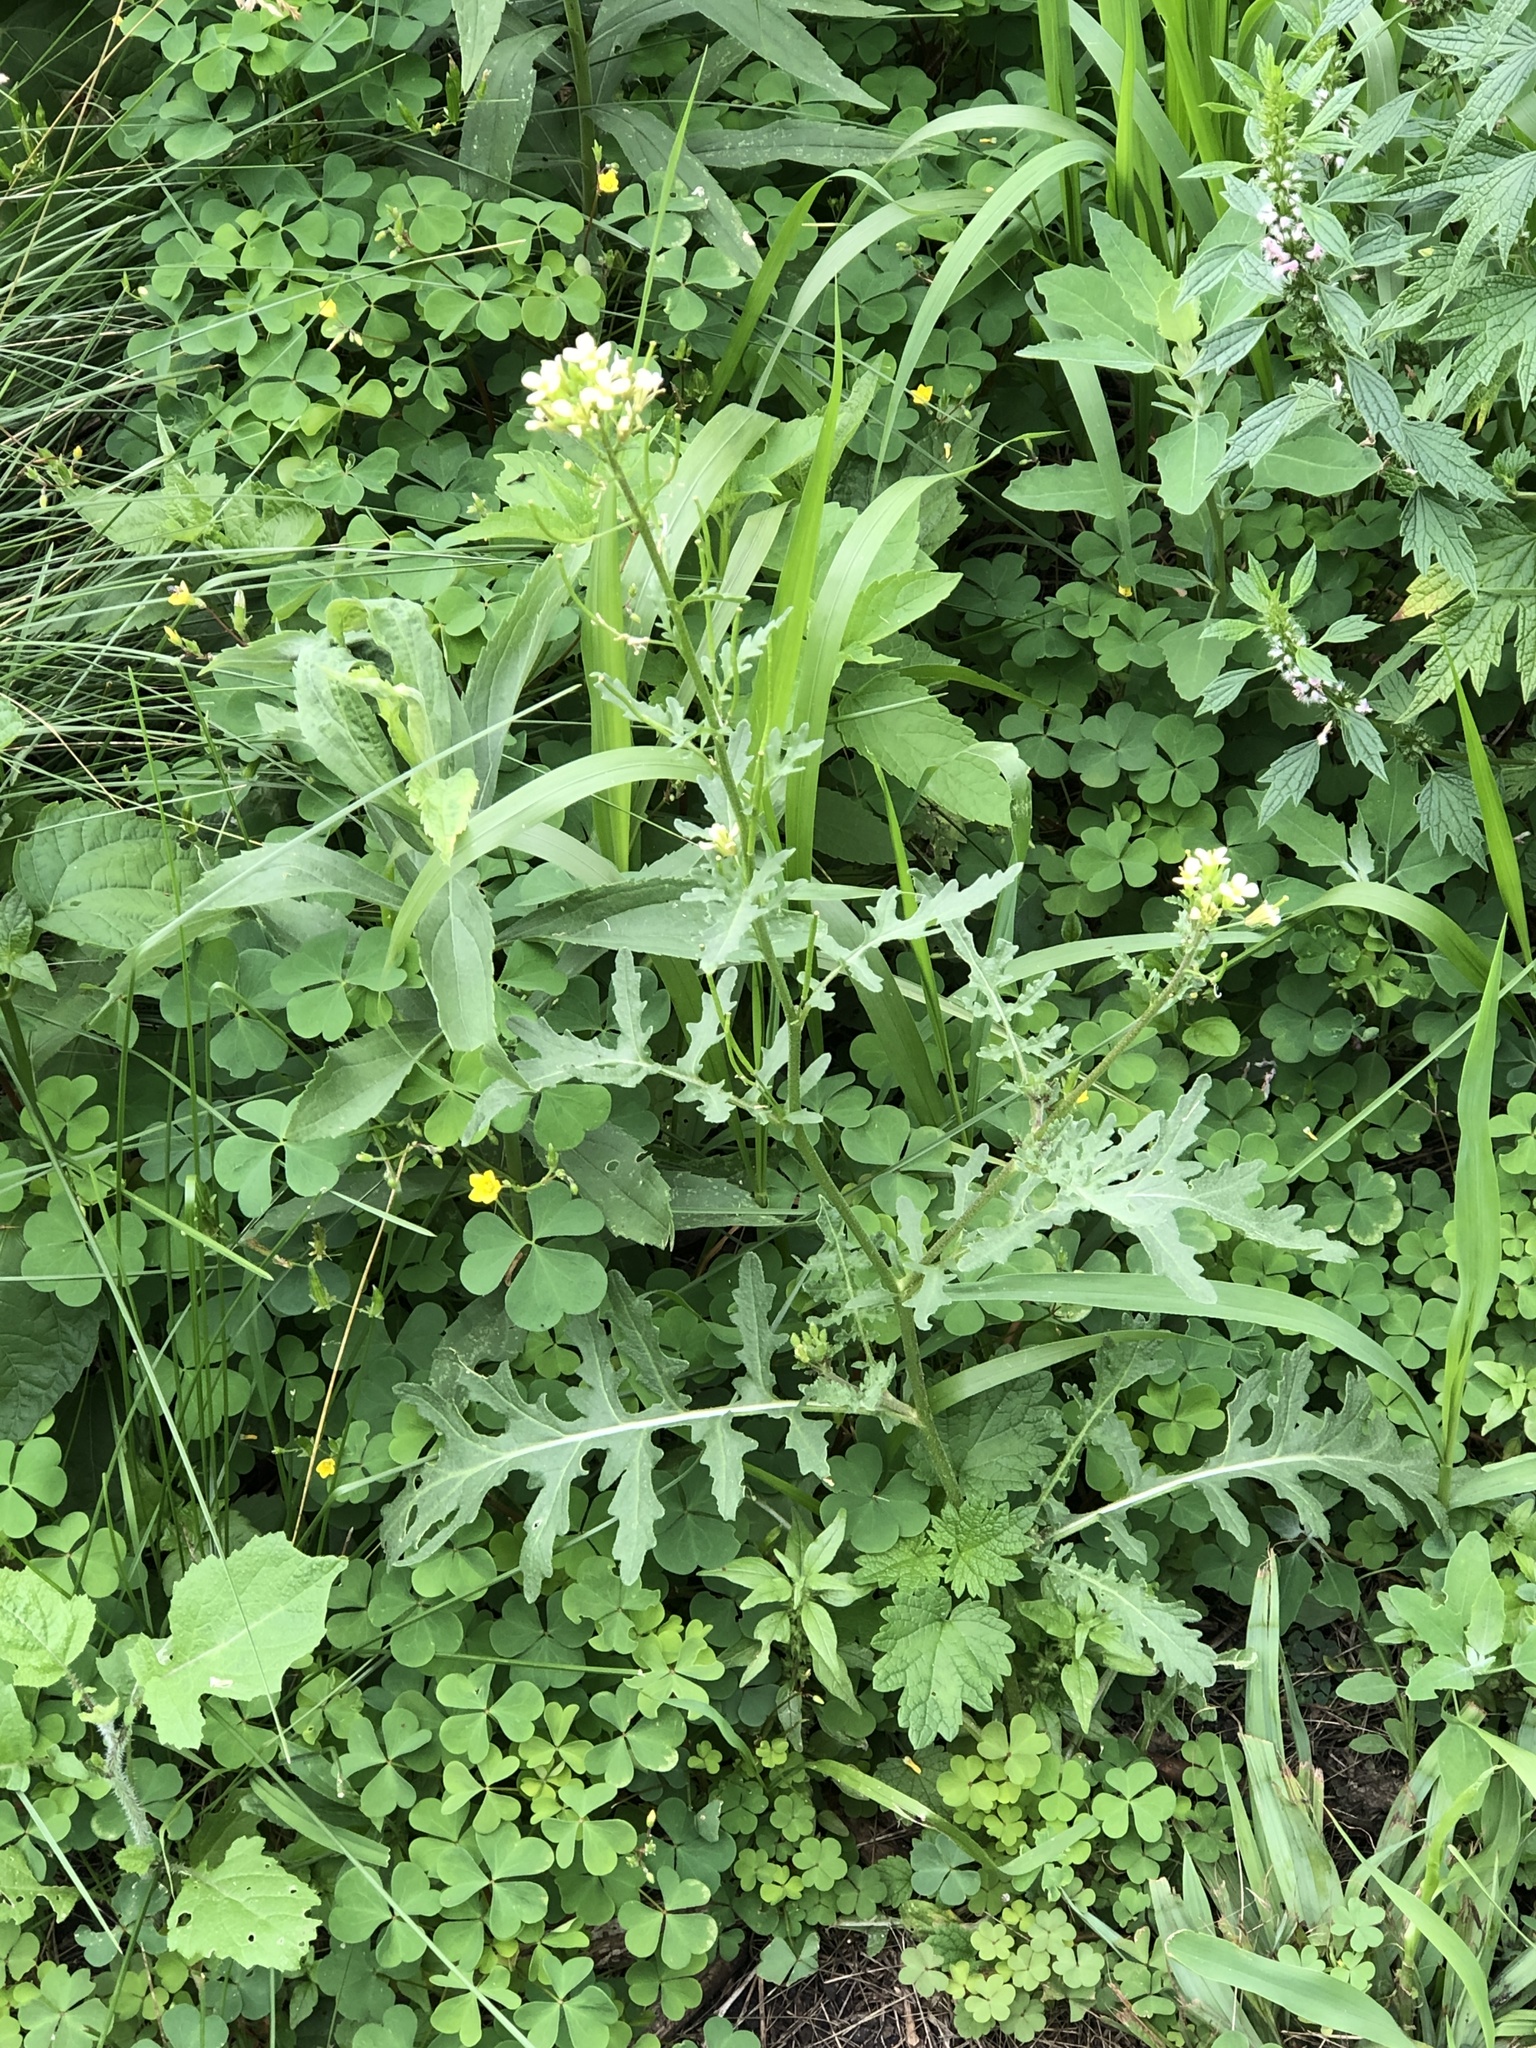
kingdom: Plantae
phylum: Tracheophyta
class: Magnoliopsida
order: Brassicales
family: Brassicaceae
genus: Erucastrum
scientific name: Erucastrum gallicum
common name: Hairy rocket
